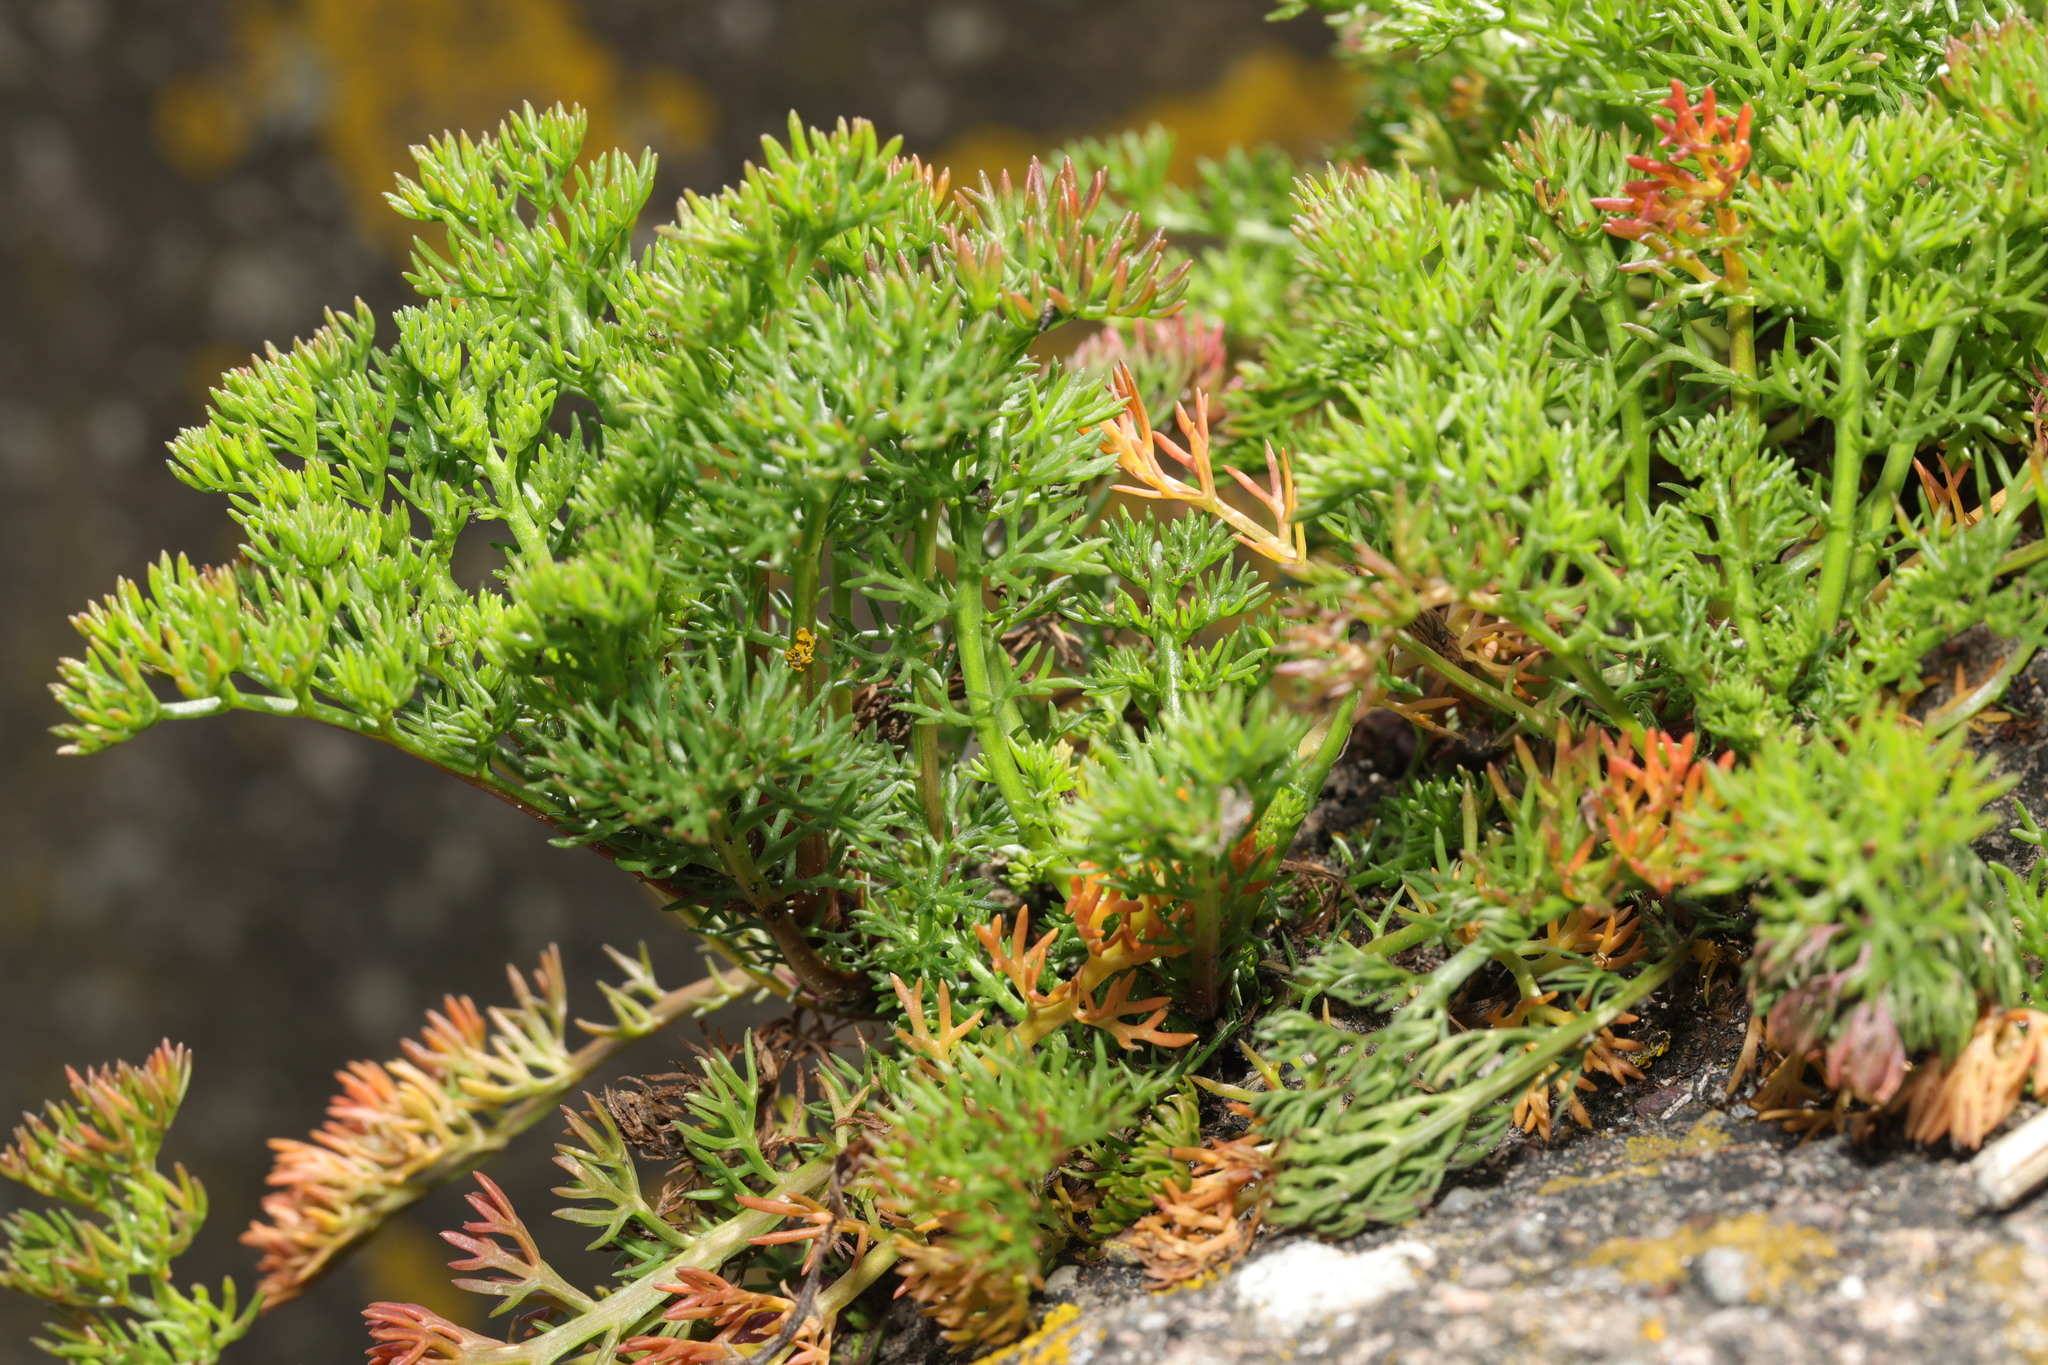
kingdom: Plantae
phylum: Tracheophyta
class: Magnoliopsida
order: Asterales
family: Asteraceae
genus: Tripleurospermum
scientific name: Tripleurospermum maritimum
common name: Sea mayweed
